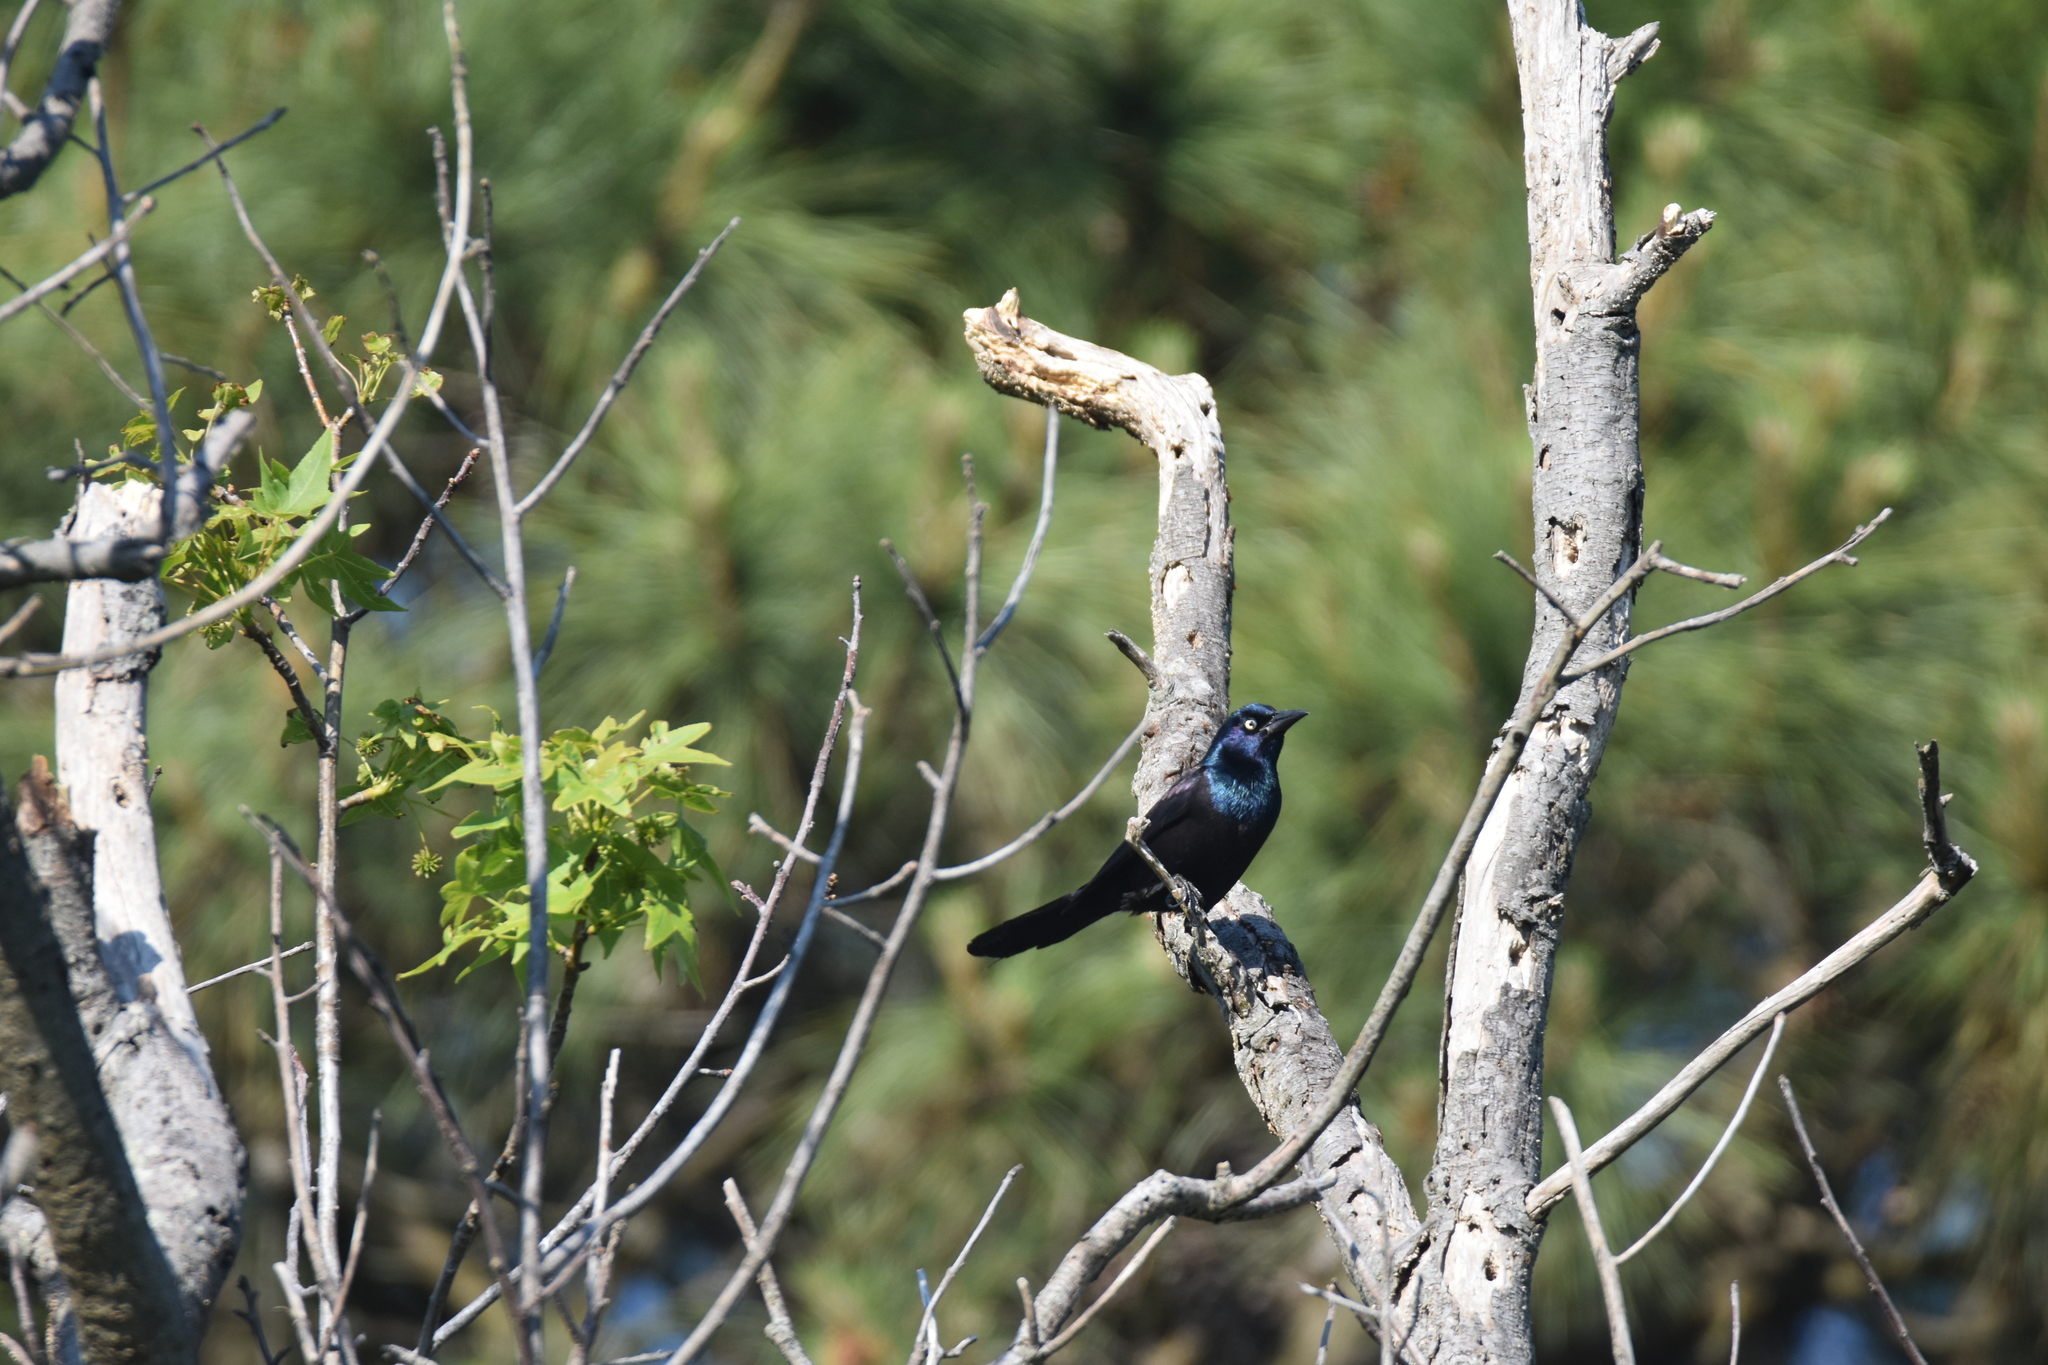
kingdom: Animalia
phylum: Chordata
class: Aves
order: Passeriformes
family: Icteridae
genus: Quiscalus
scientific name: Quiscalus quiscula
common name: Common grackle
